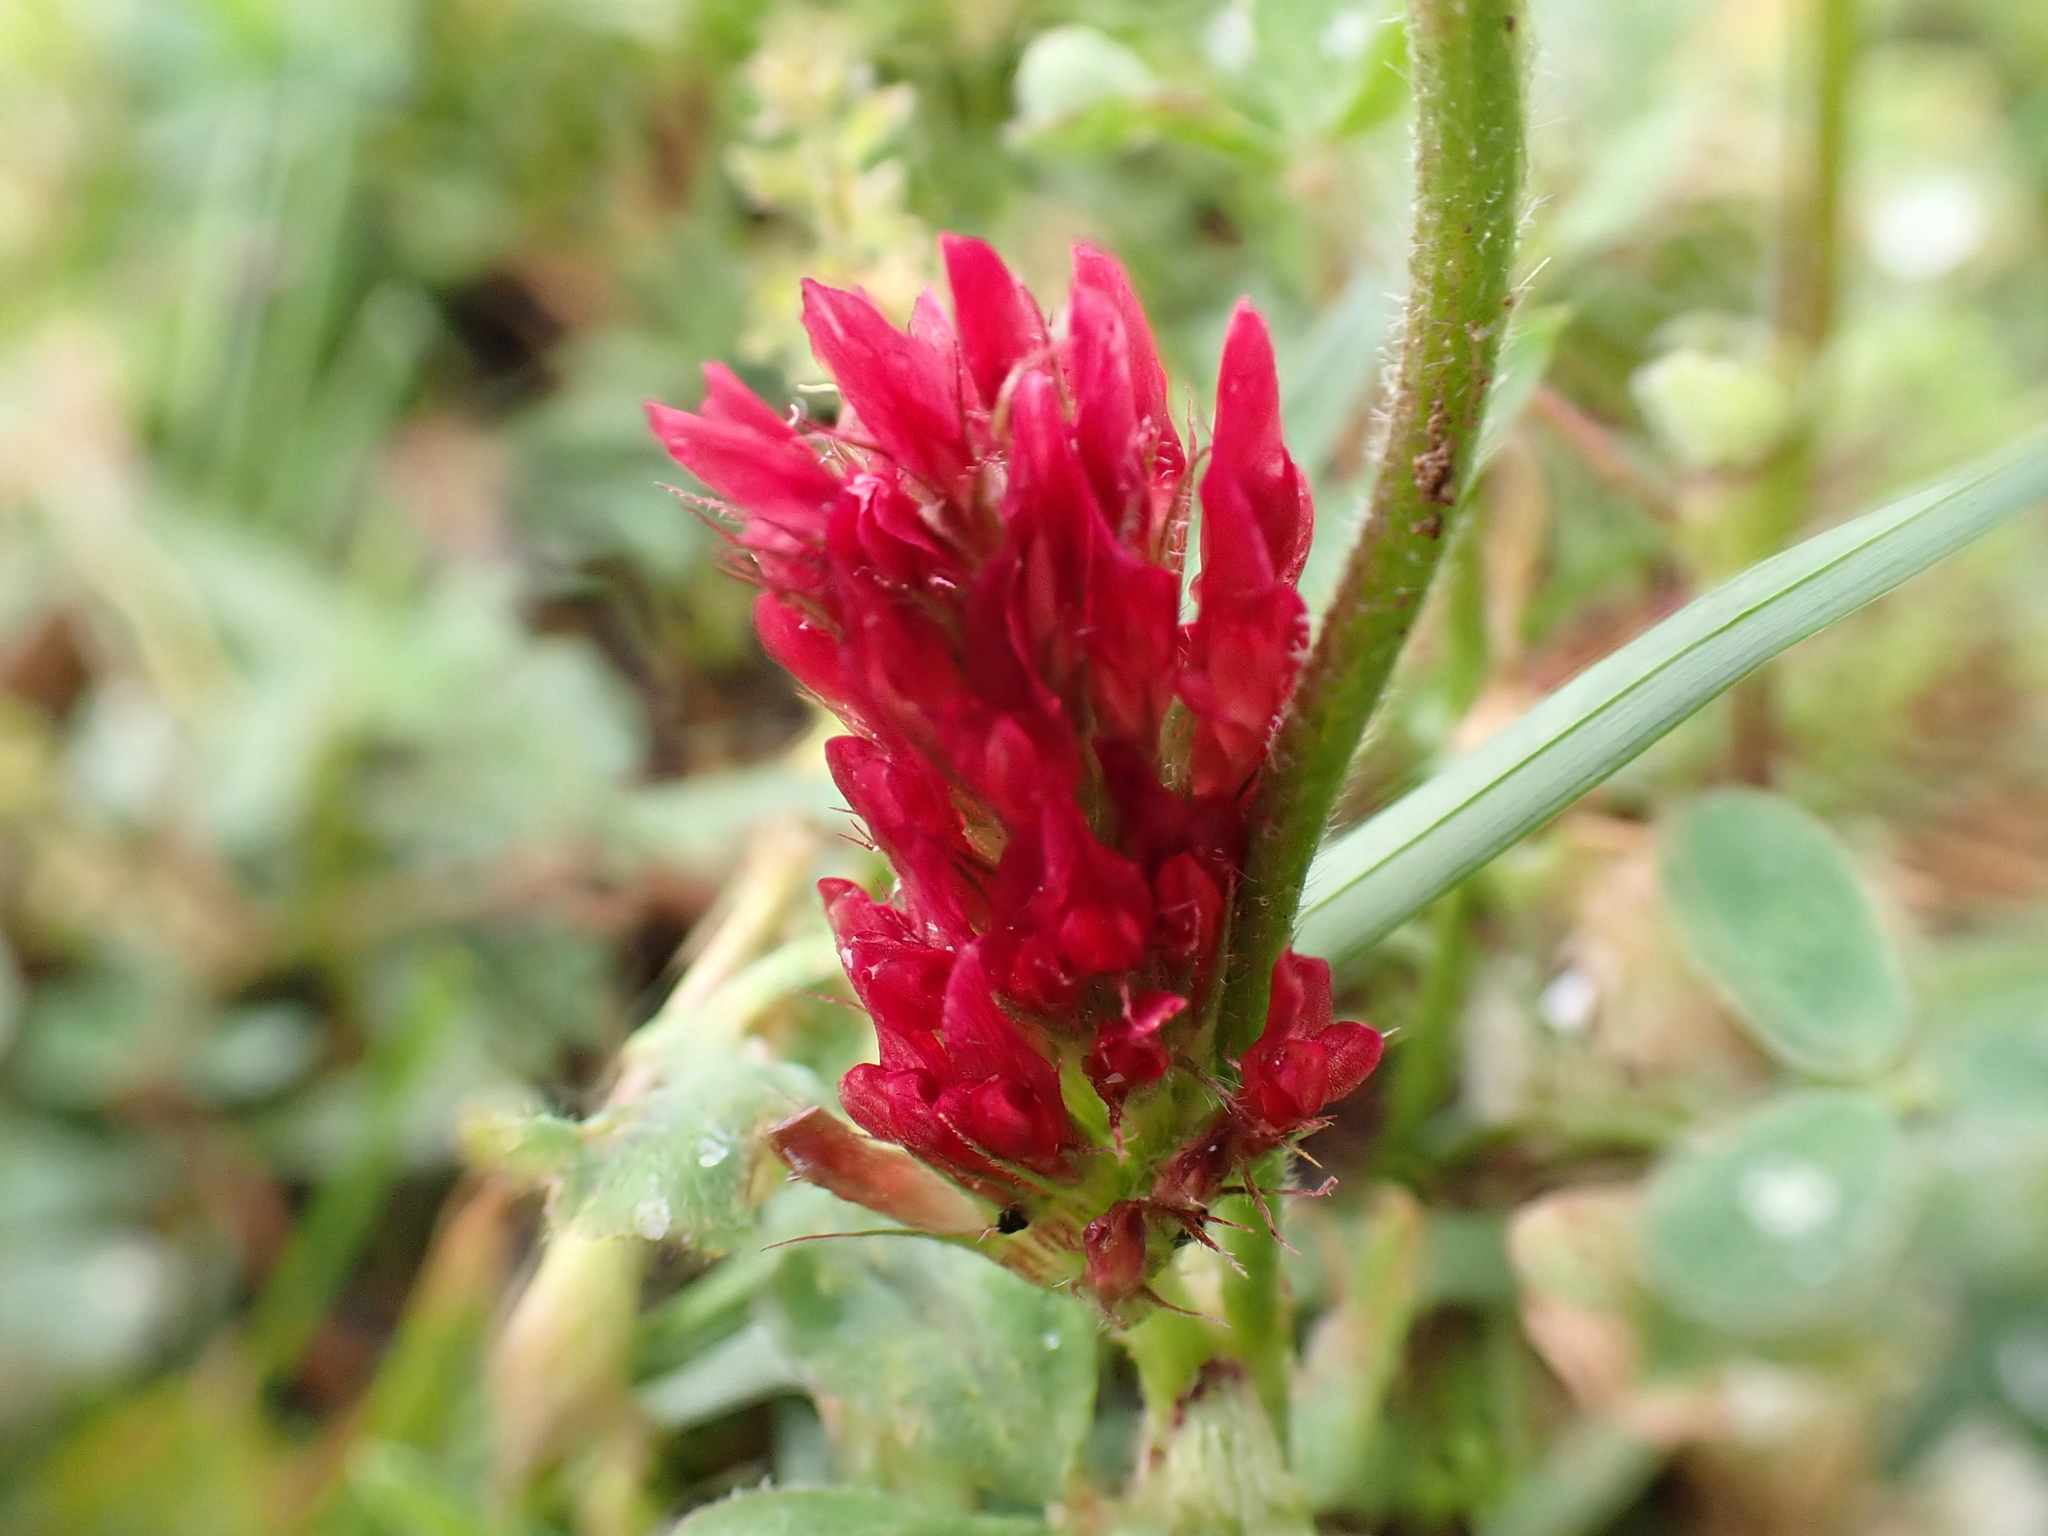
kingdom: Plantae
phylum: Tracheophyta
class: Magnoliopsida
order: Fabales
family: Fabaceae
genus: Trifolium
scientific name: Trifolium incarnatum
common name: Crimson clover
